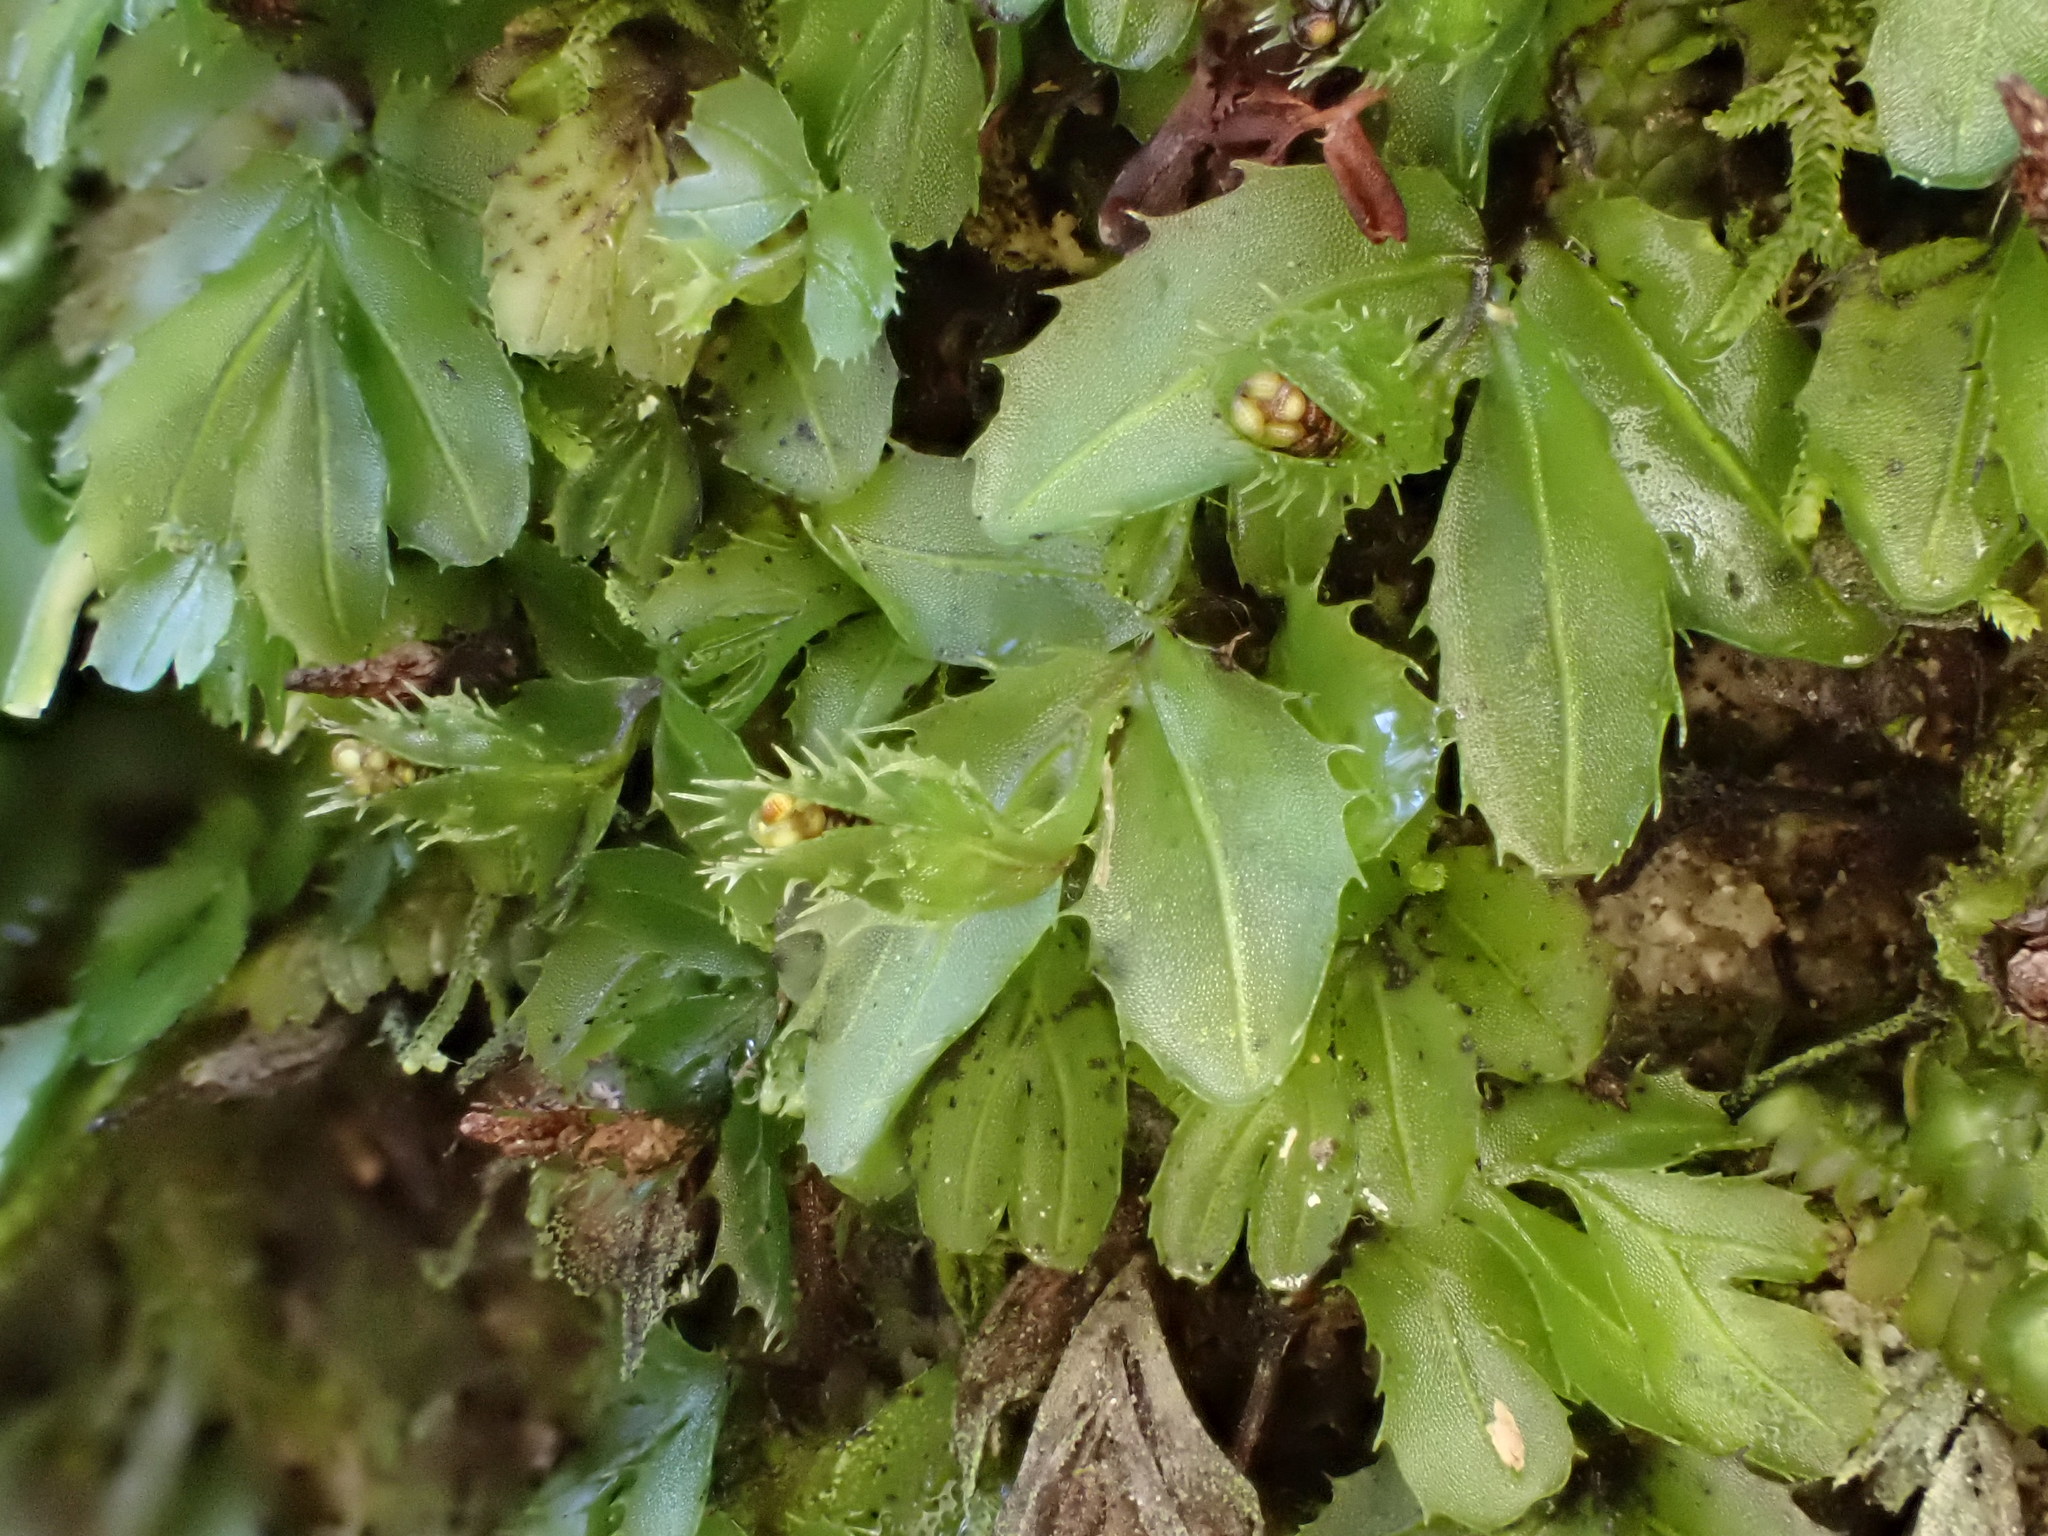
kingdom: Plantae
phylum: Tracheophyta
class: Polypodiopsida
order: Hymenophyllales
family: Hymenophyllaceae
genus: Hymenophyllum
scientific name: Hymenophyllum minimum
